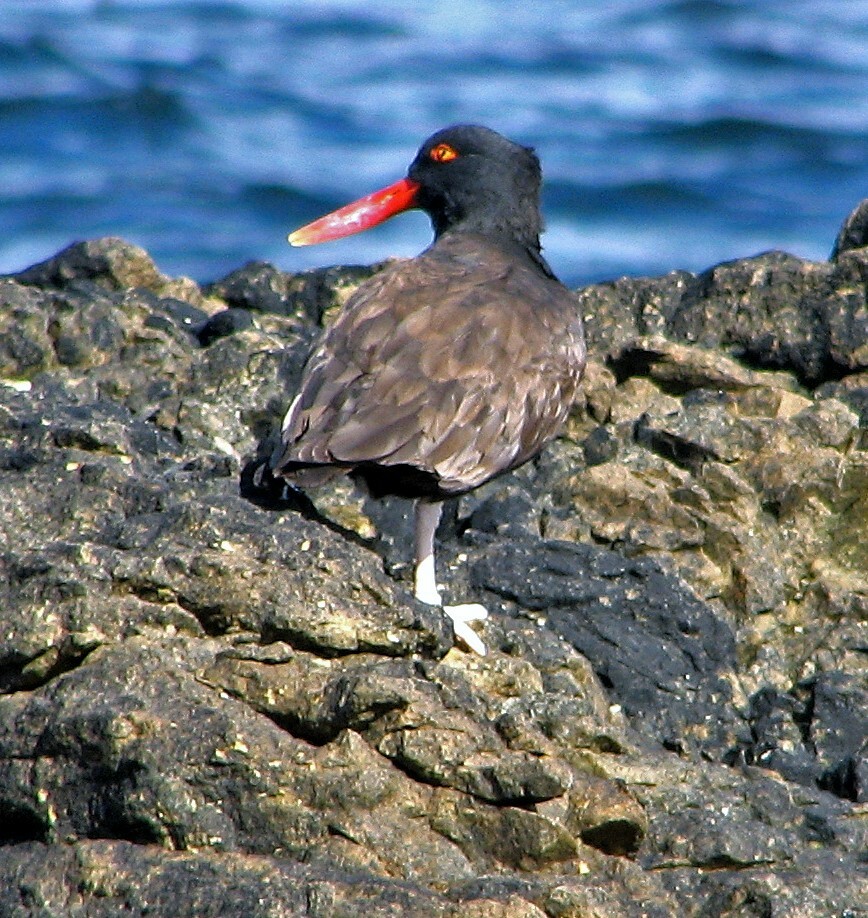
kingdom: Animalia
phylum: Chordata
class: Aves
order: Charadriiformes
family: Haematopodidae
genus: Haematopus
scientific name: Haematopus ater
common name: Blackish oystercatcher
